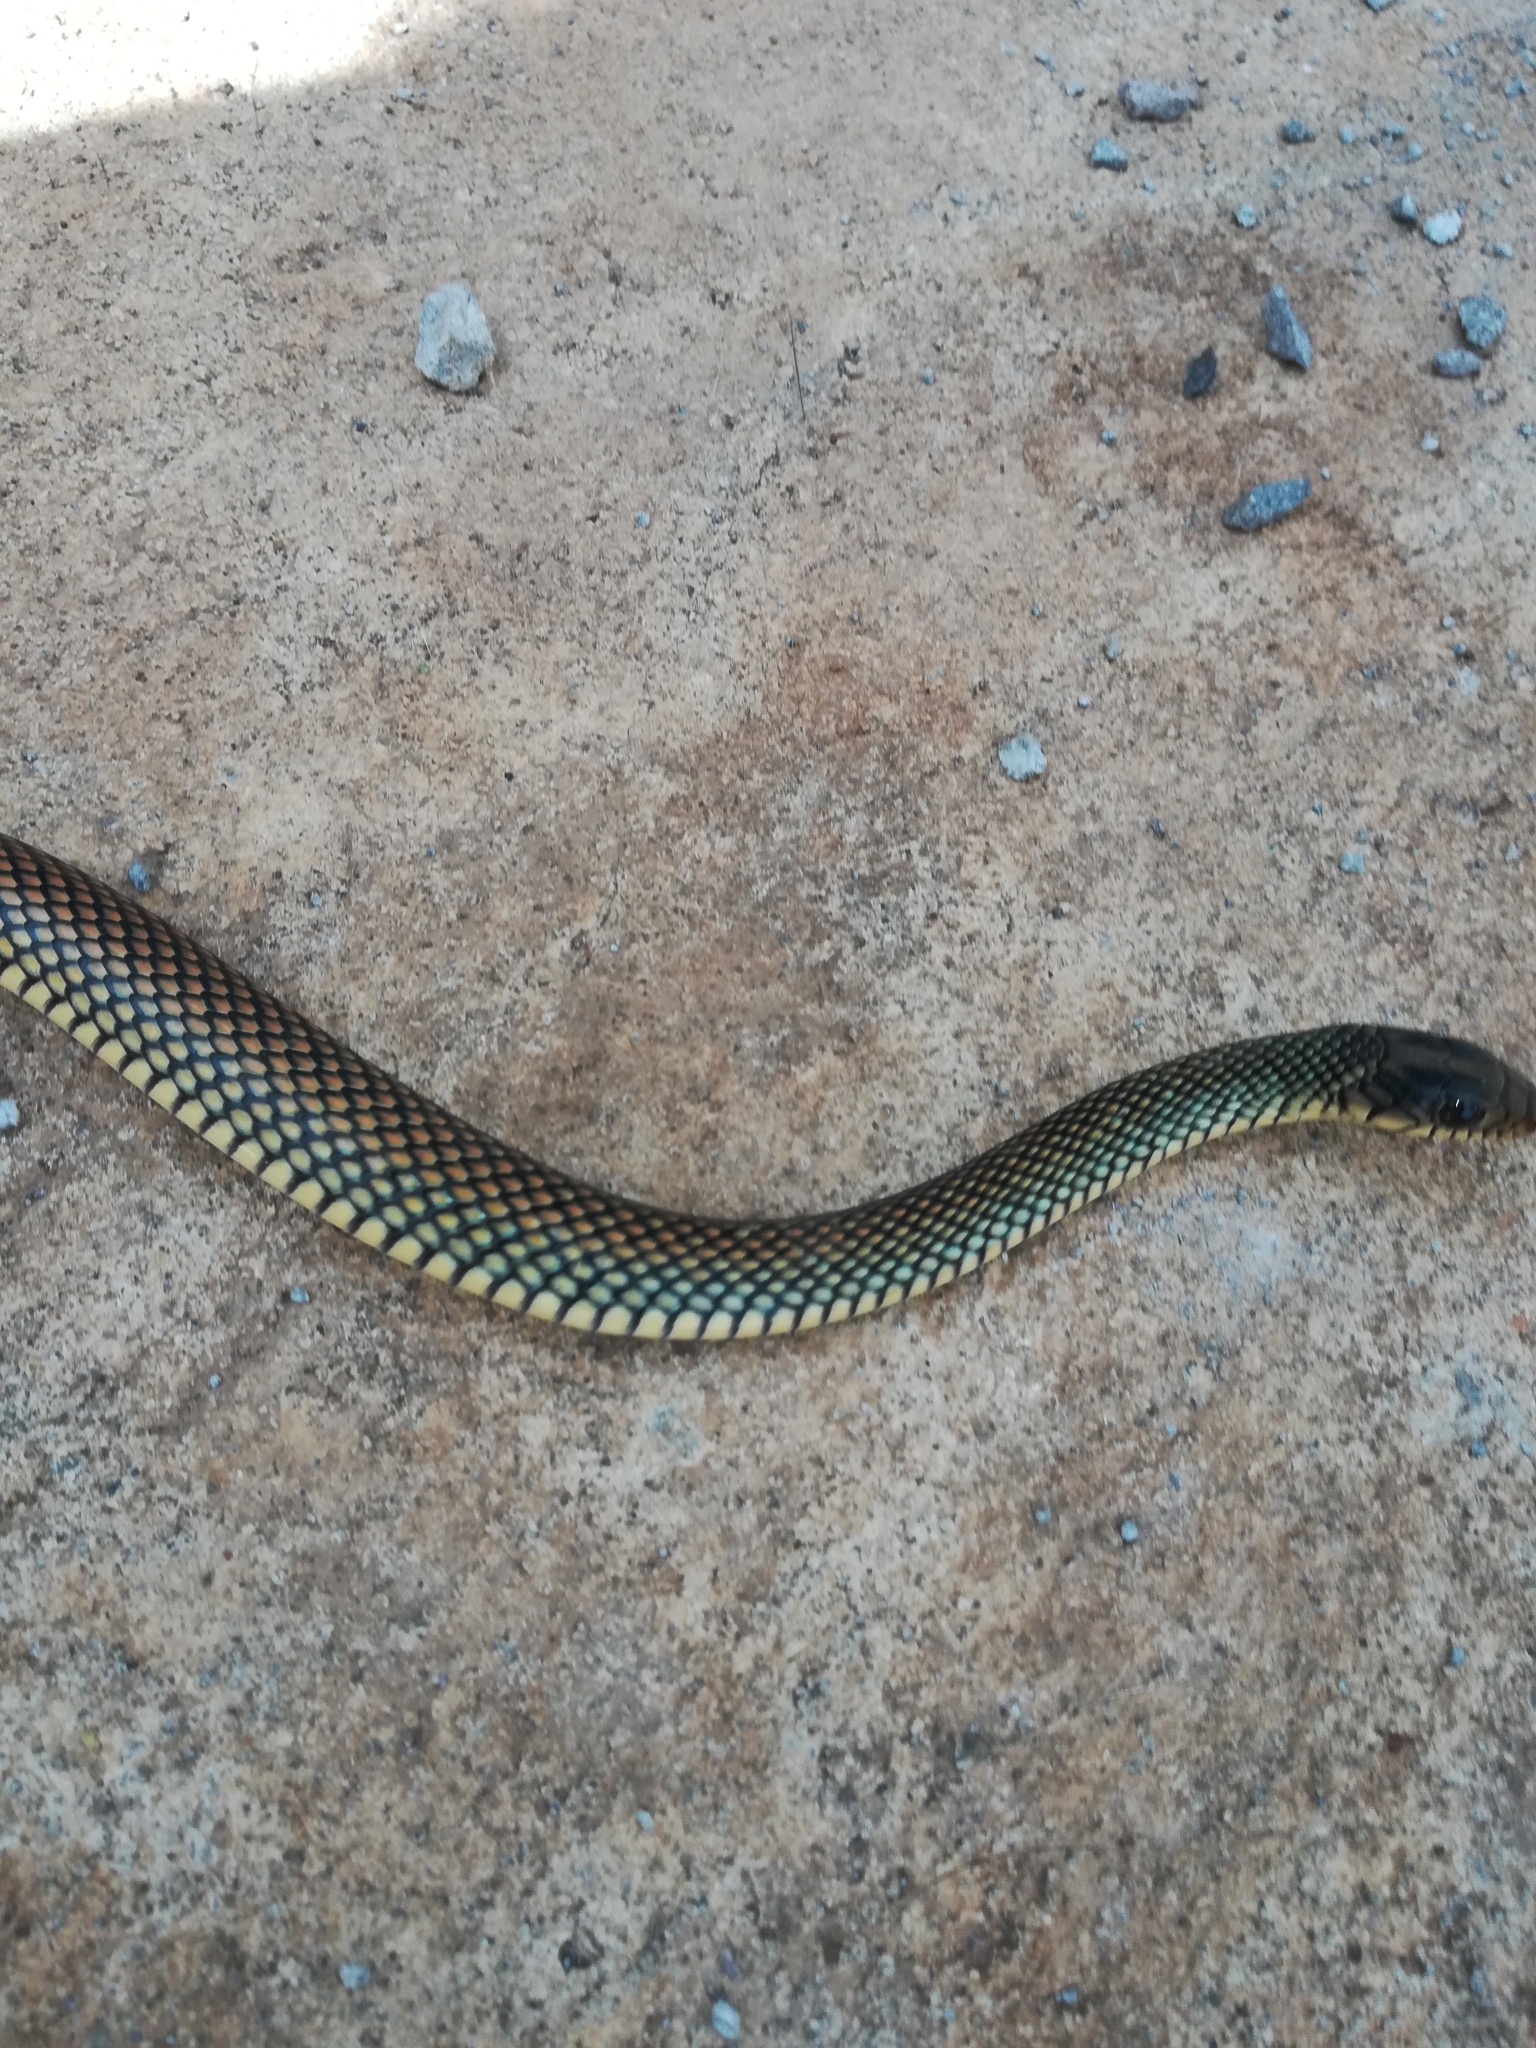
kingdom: Animalia
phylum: Chordata
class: Squamata
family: Colubridae
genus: Drymobius
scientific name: Drymobius margaritiferus
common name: Central american speckled racer
